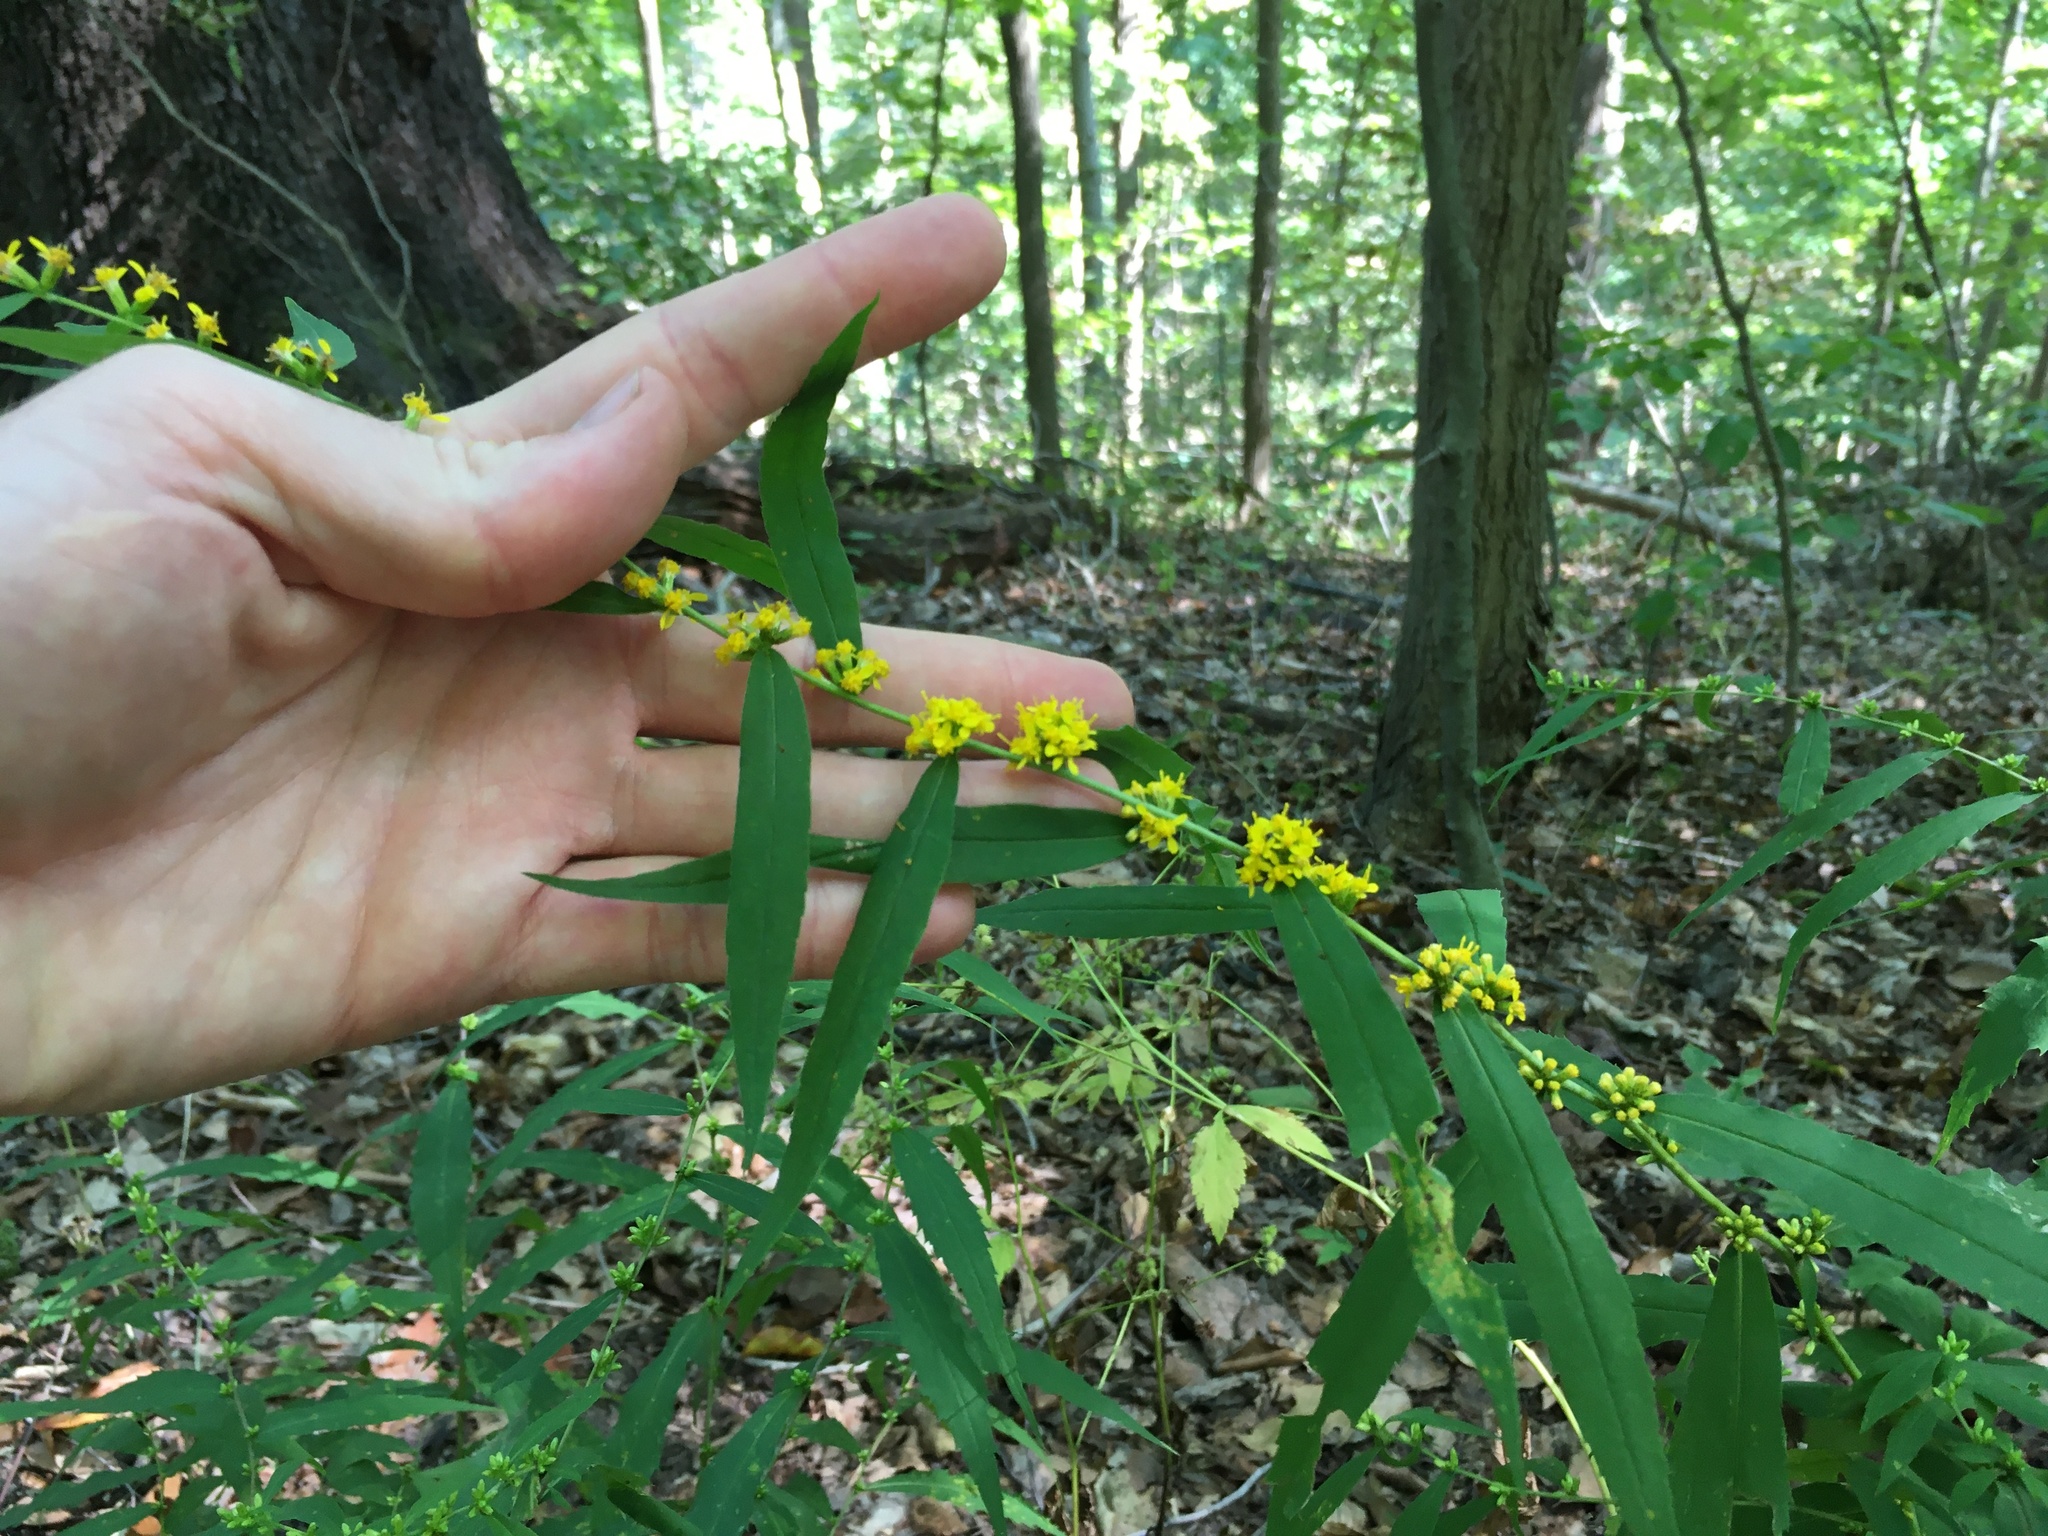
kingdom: Plantae
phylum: Tracheophyta
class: Magnoliopsida
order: Asterales
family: Asteraceae
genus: Solidago
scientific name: Solidago caesia
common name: Woodland goldenrod
